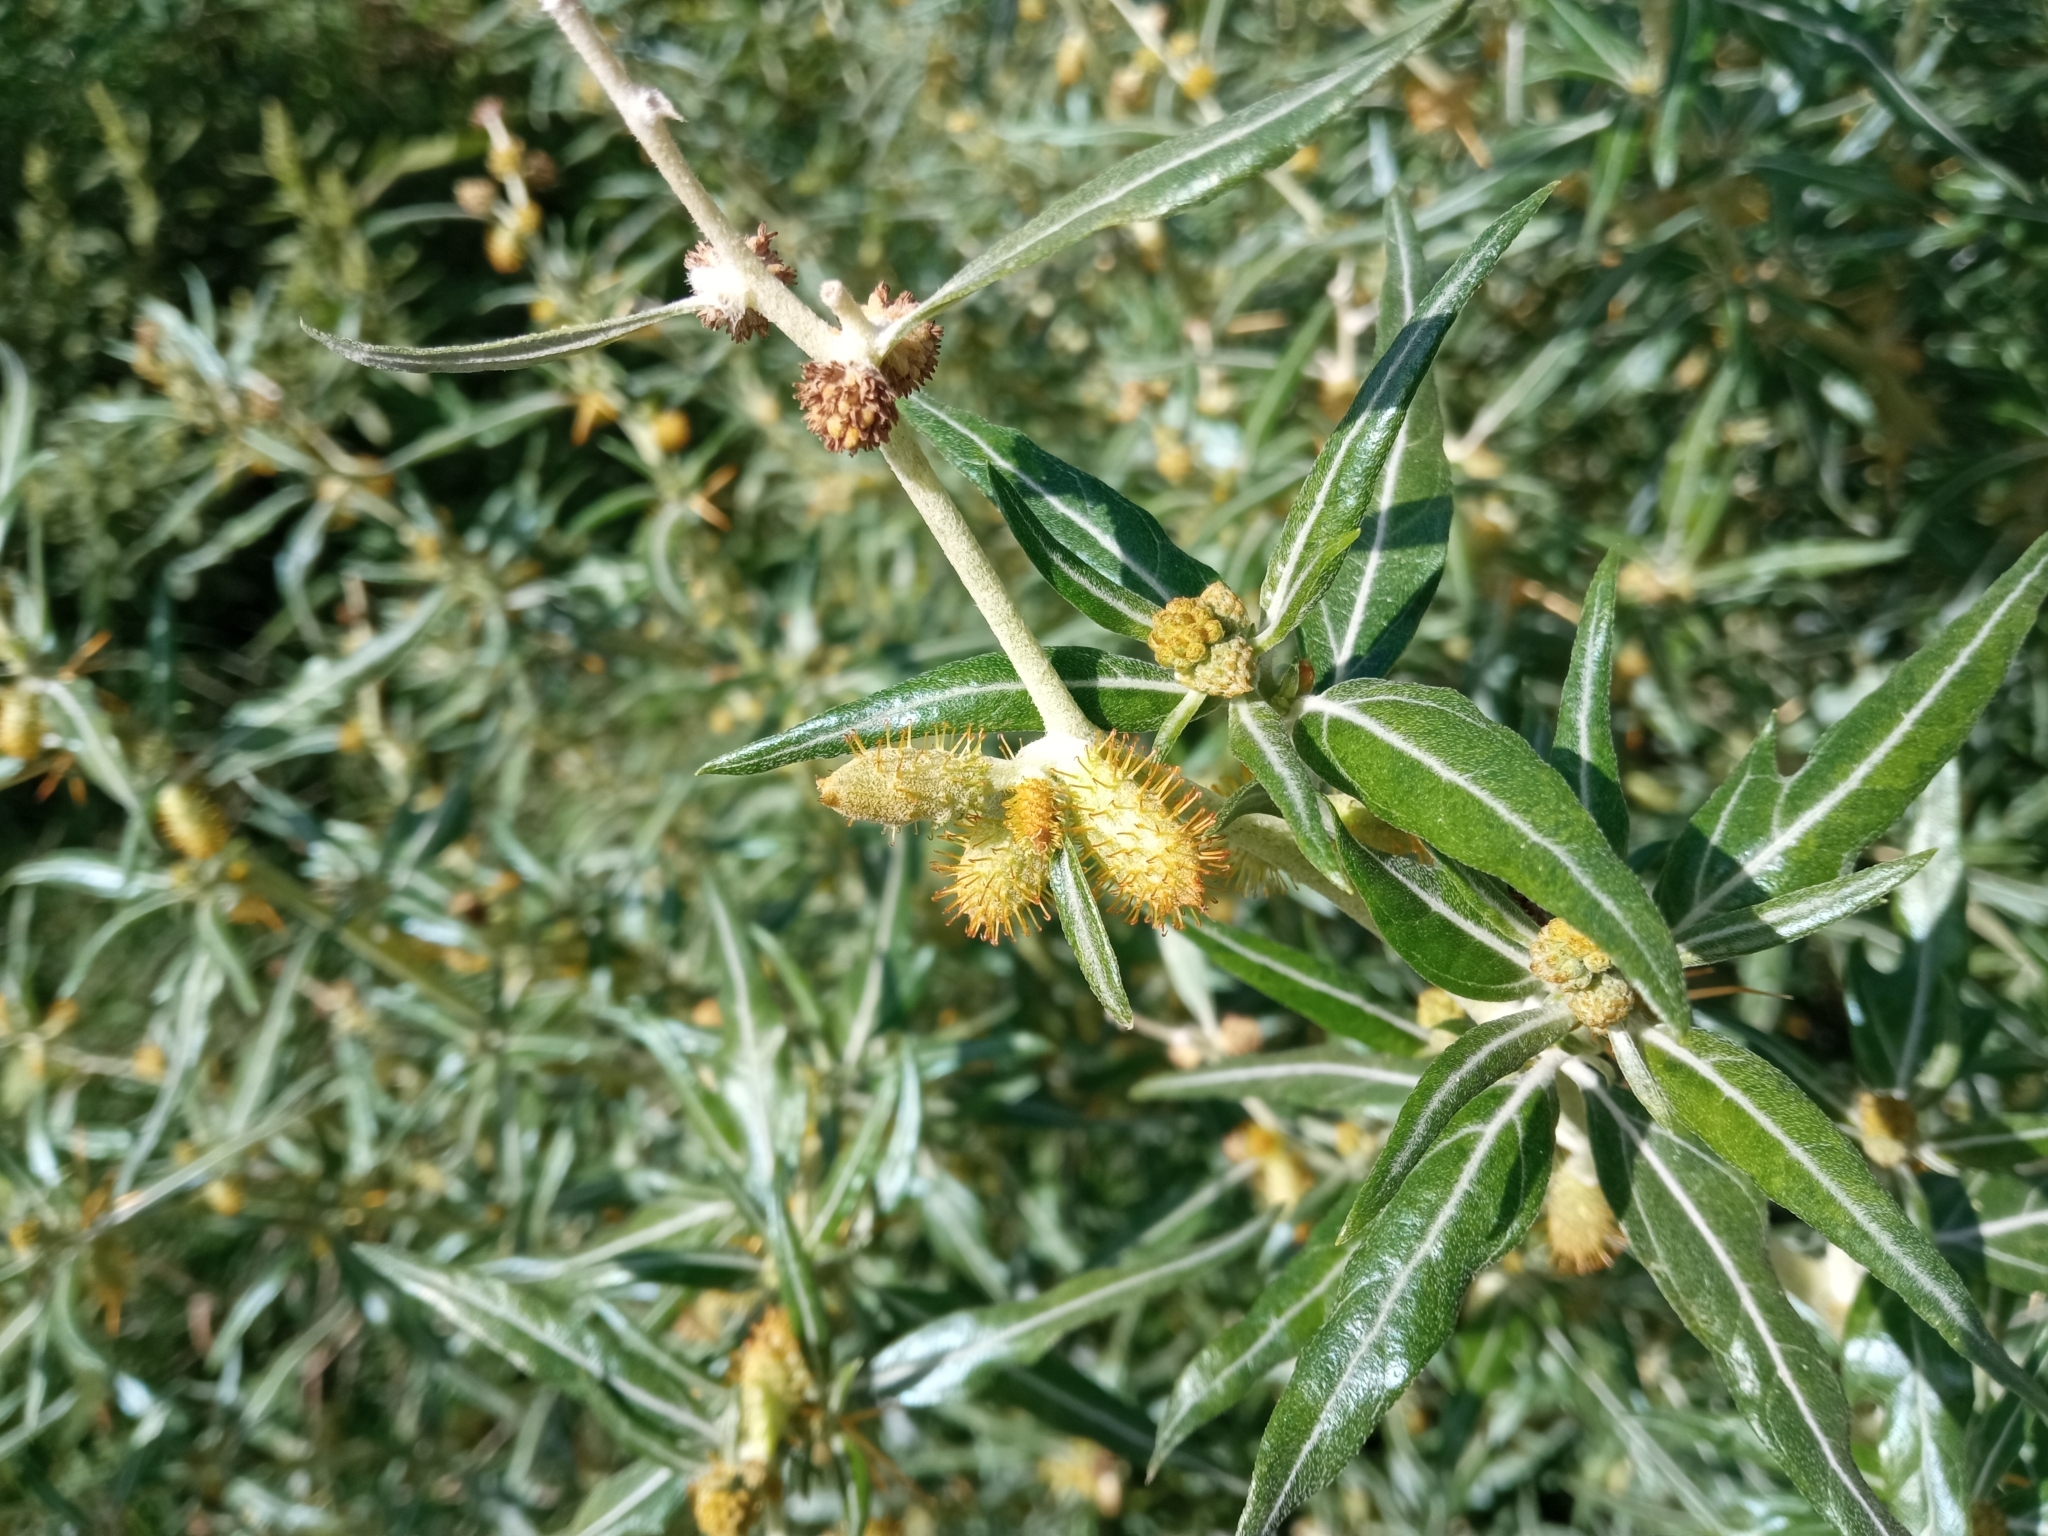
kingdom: Plantae
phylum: Tracheophyta
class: Magnoliopsida
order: Asterales
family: Asteraceae
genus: Xanthium
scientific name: Xanthium spinosum
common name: Spiny cocklebur
